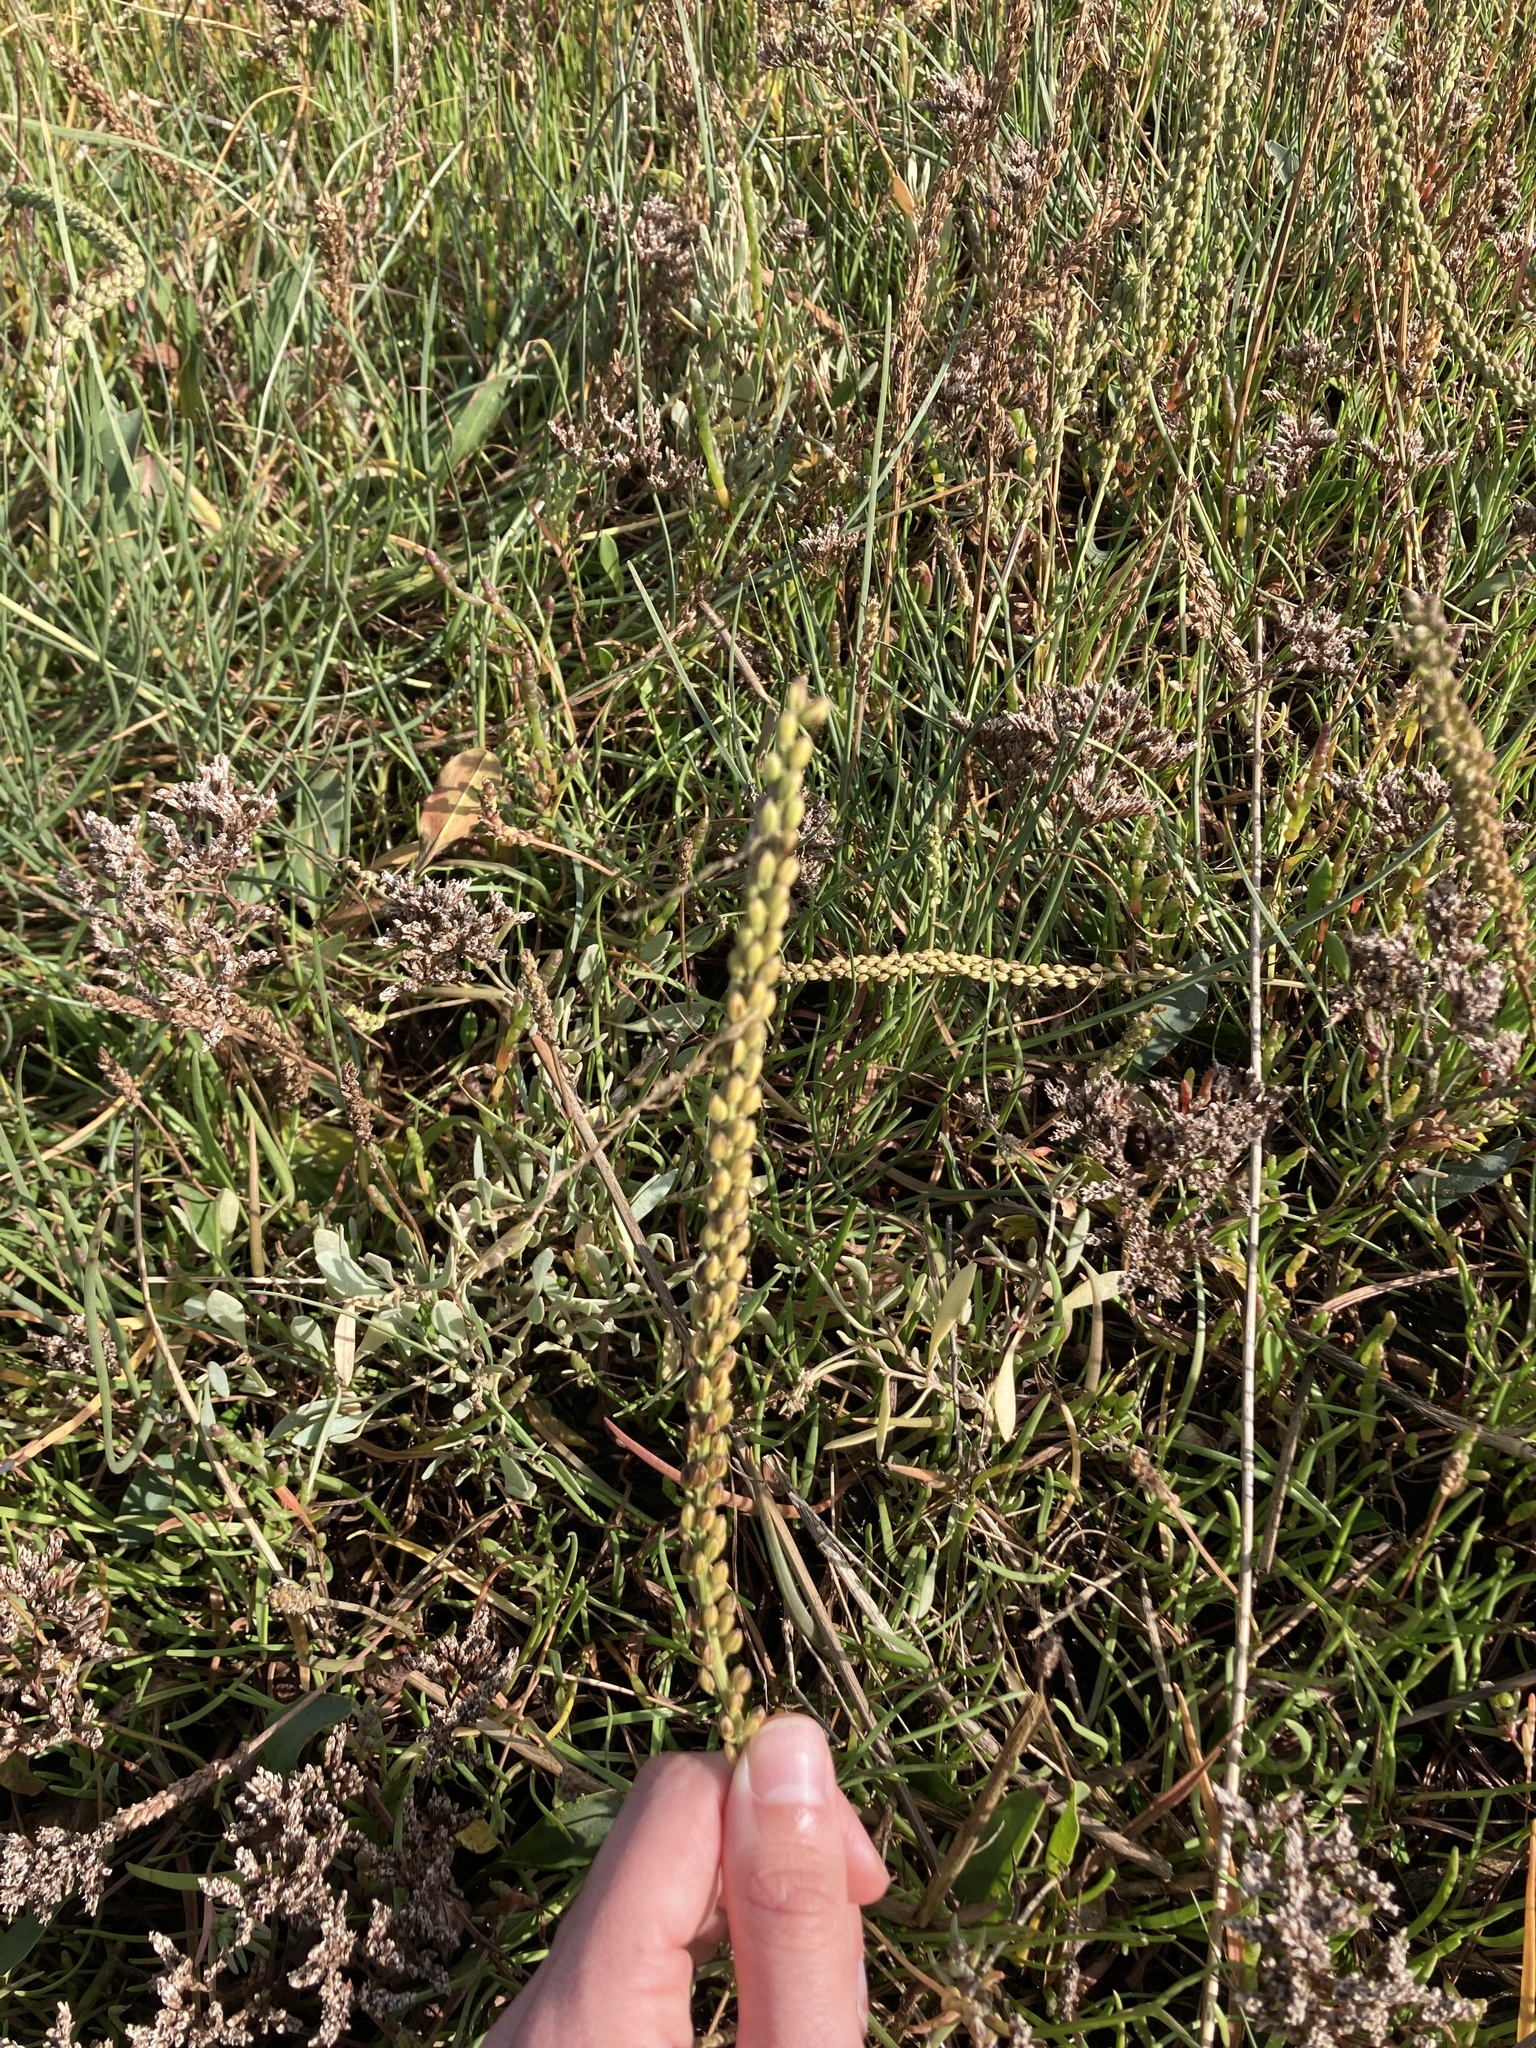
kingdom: Plantae
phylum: Tracheophyta
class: Liliopsida
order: Alismatales
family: Juncaginaceae
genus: Triglochin
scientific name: Triglochin maritima
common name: Sea arrowgrass
